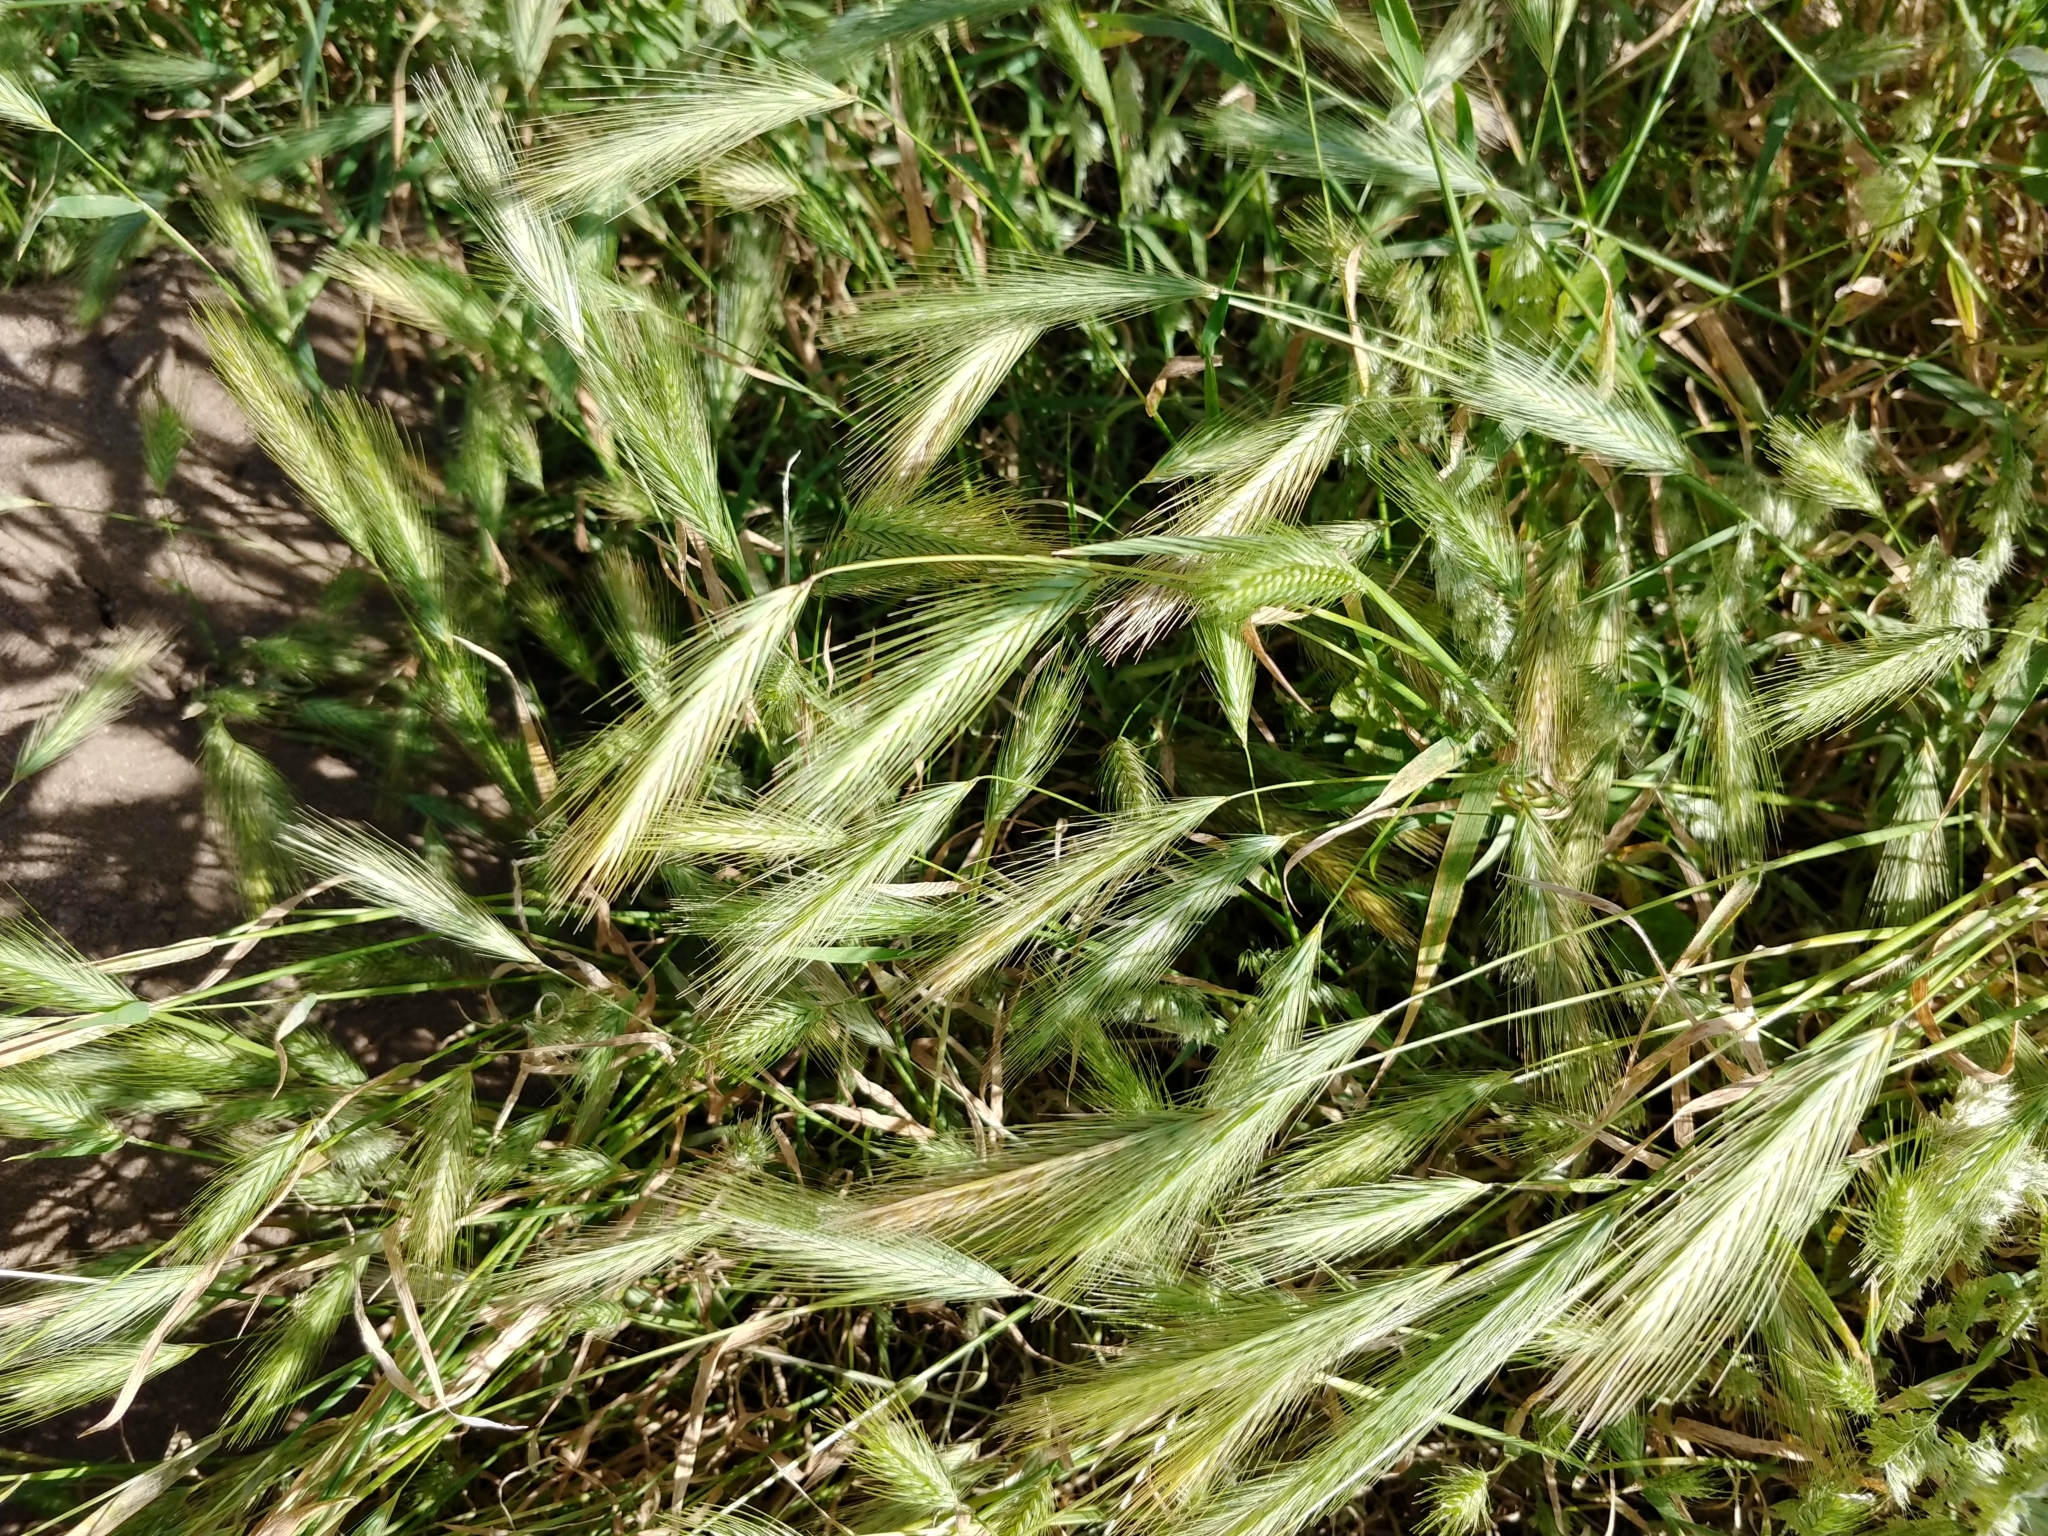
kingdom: Plantae
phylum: Tracheophyta
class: Liliopsida
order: Poales
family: Poaceae
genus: Hordeum
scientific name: Hordeum murinum
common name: Wall barley
